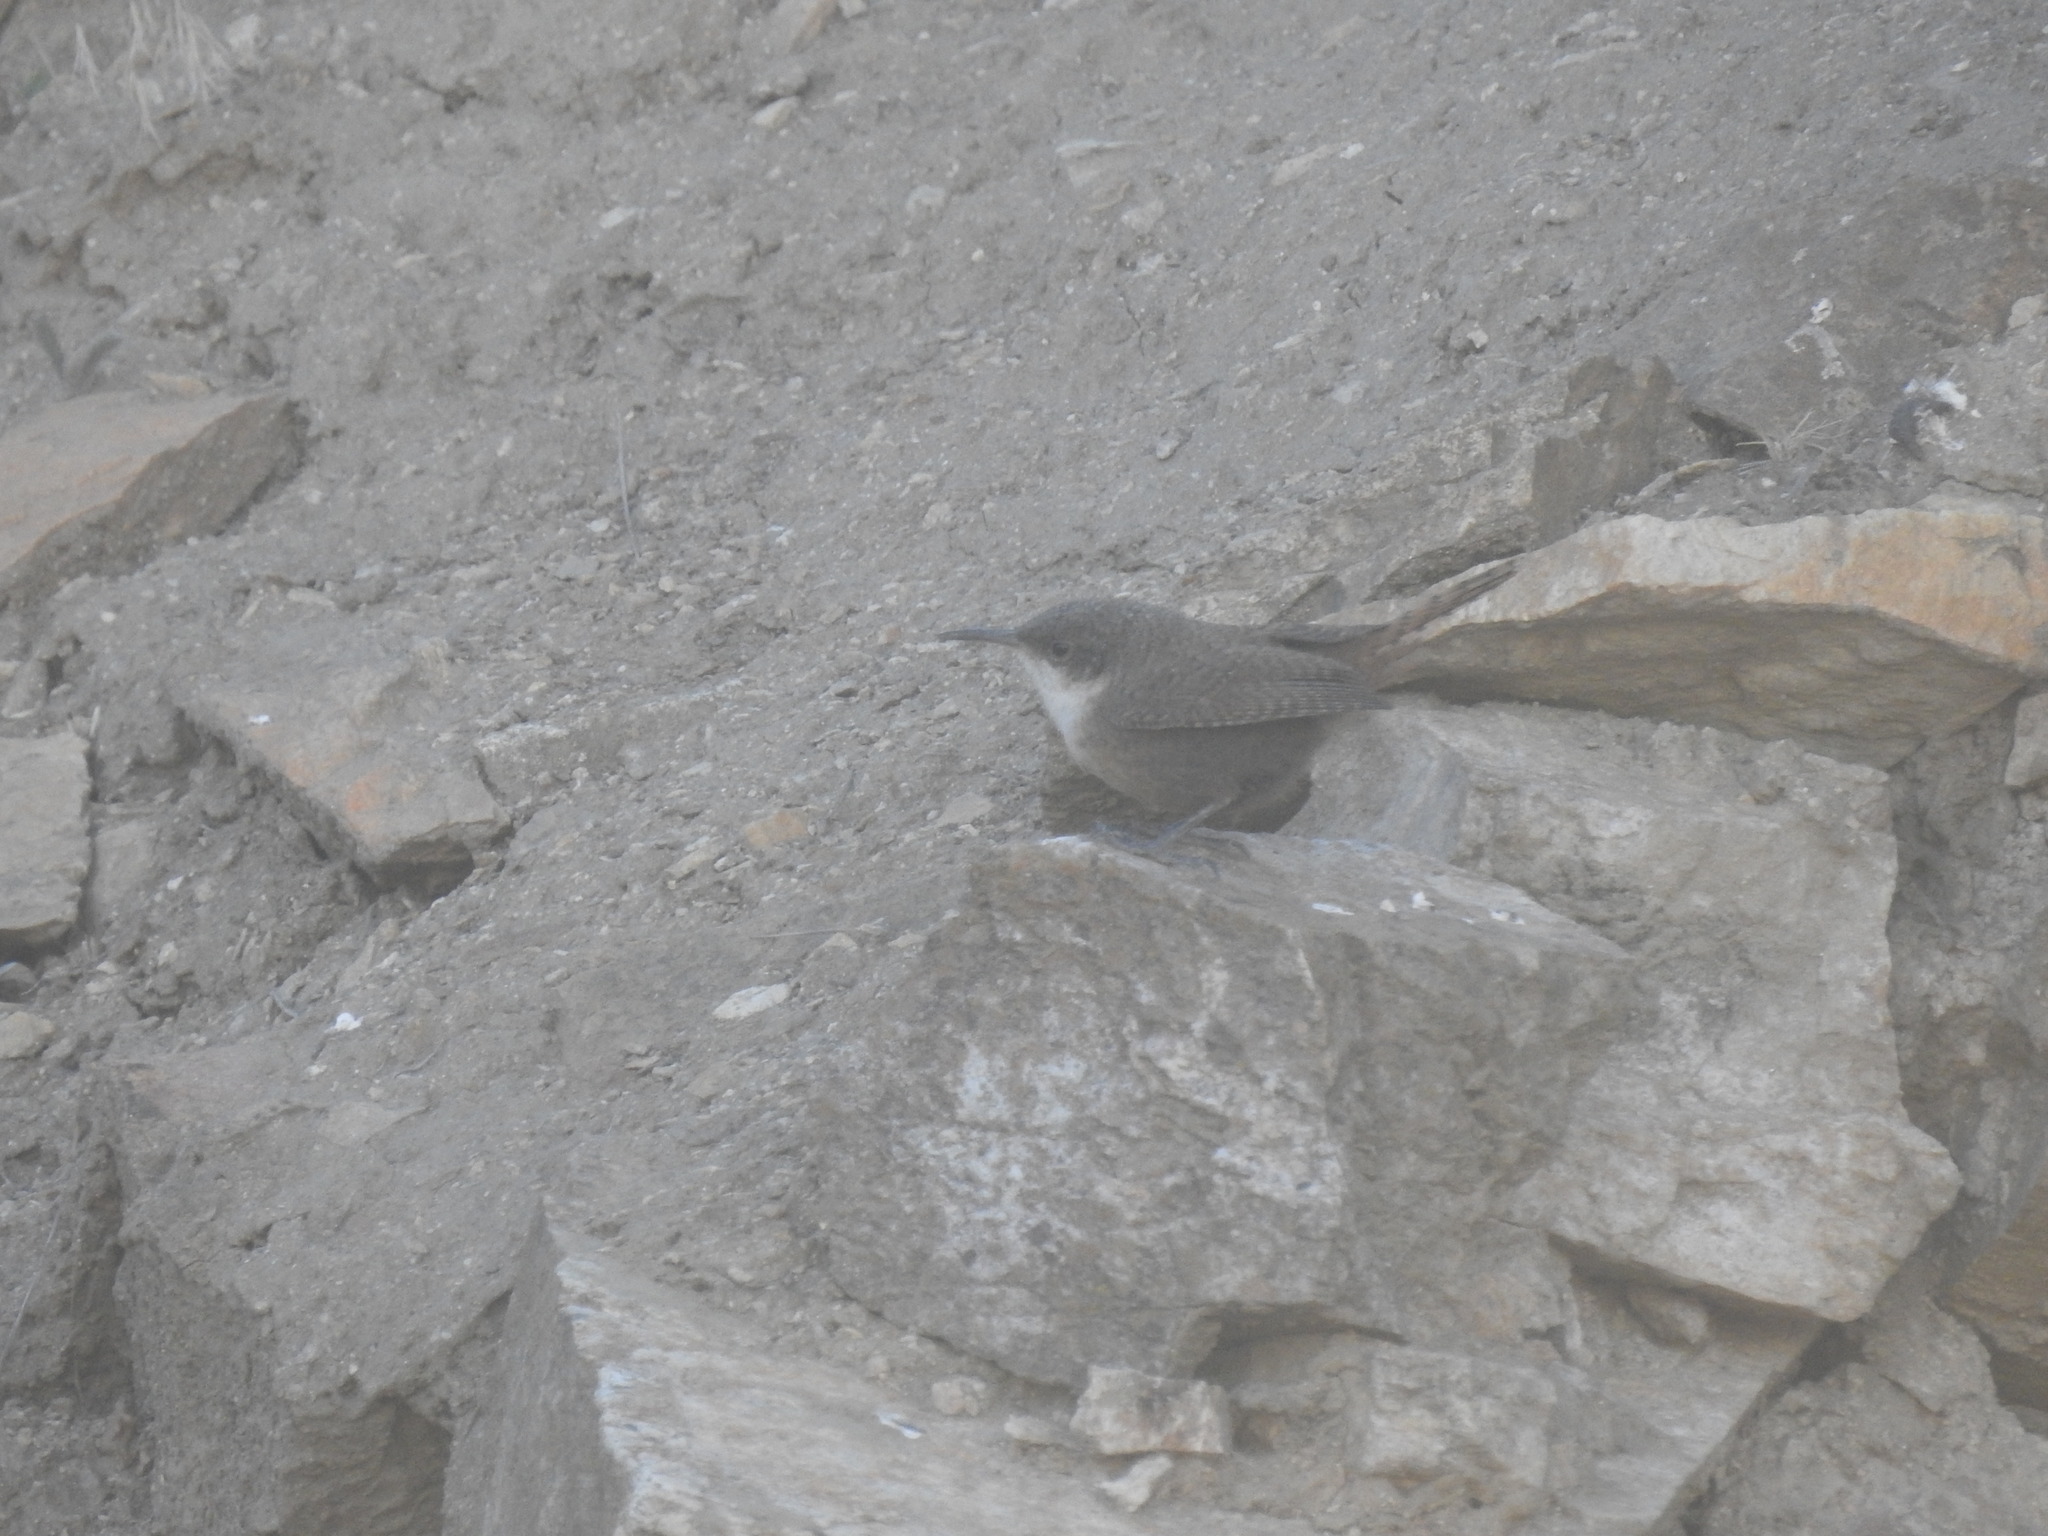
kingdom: Animalia
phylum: Chordata
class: Aves
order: Passeriformes
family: Troglodytidae
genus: Catherpes
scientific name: Catherpes mexicanus
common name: Canyon wren
